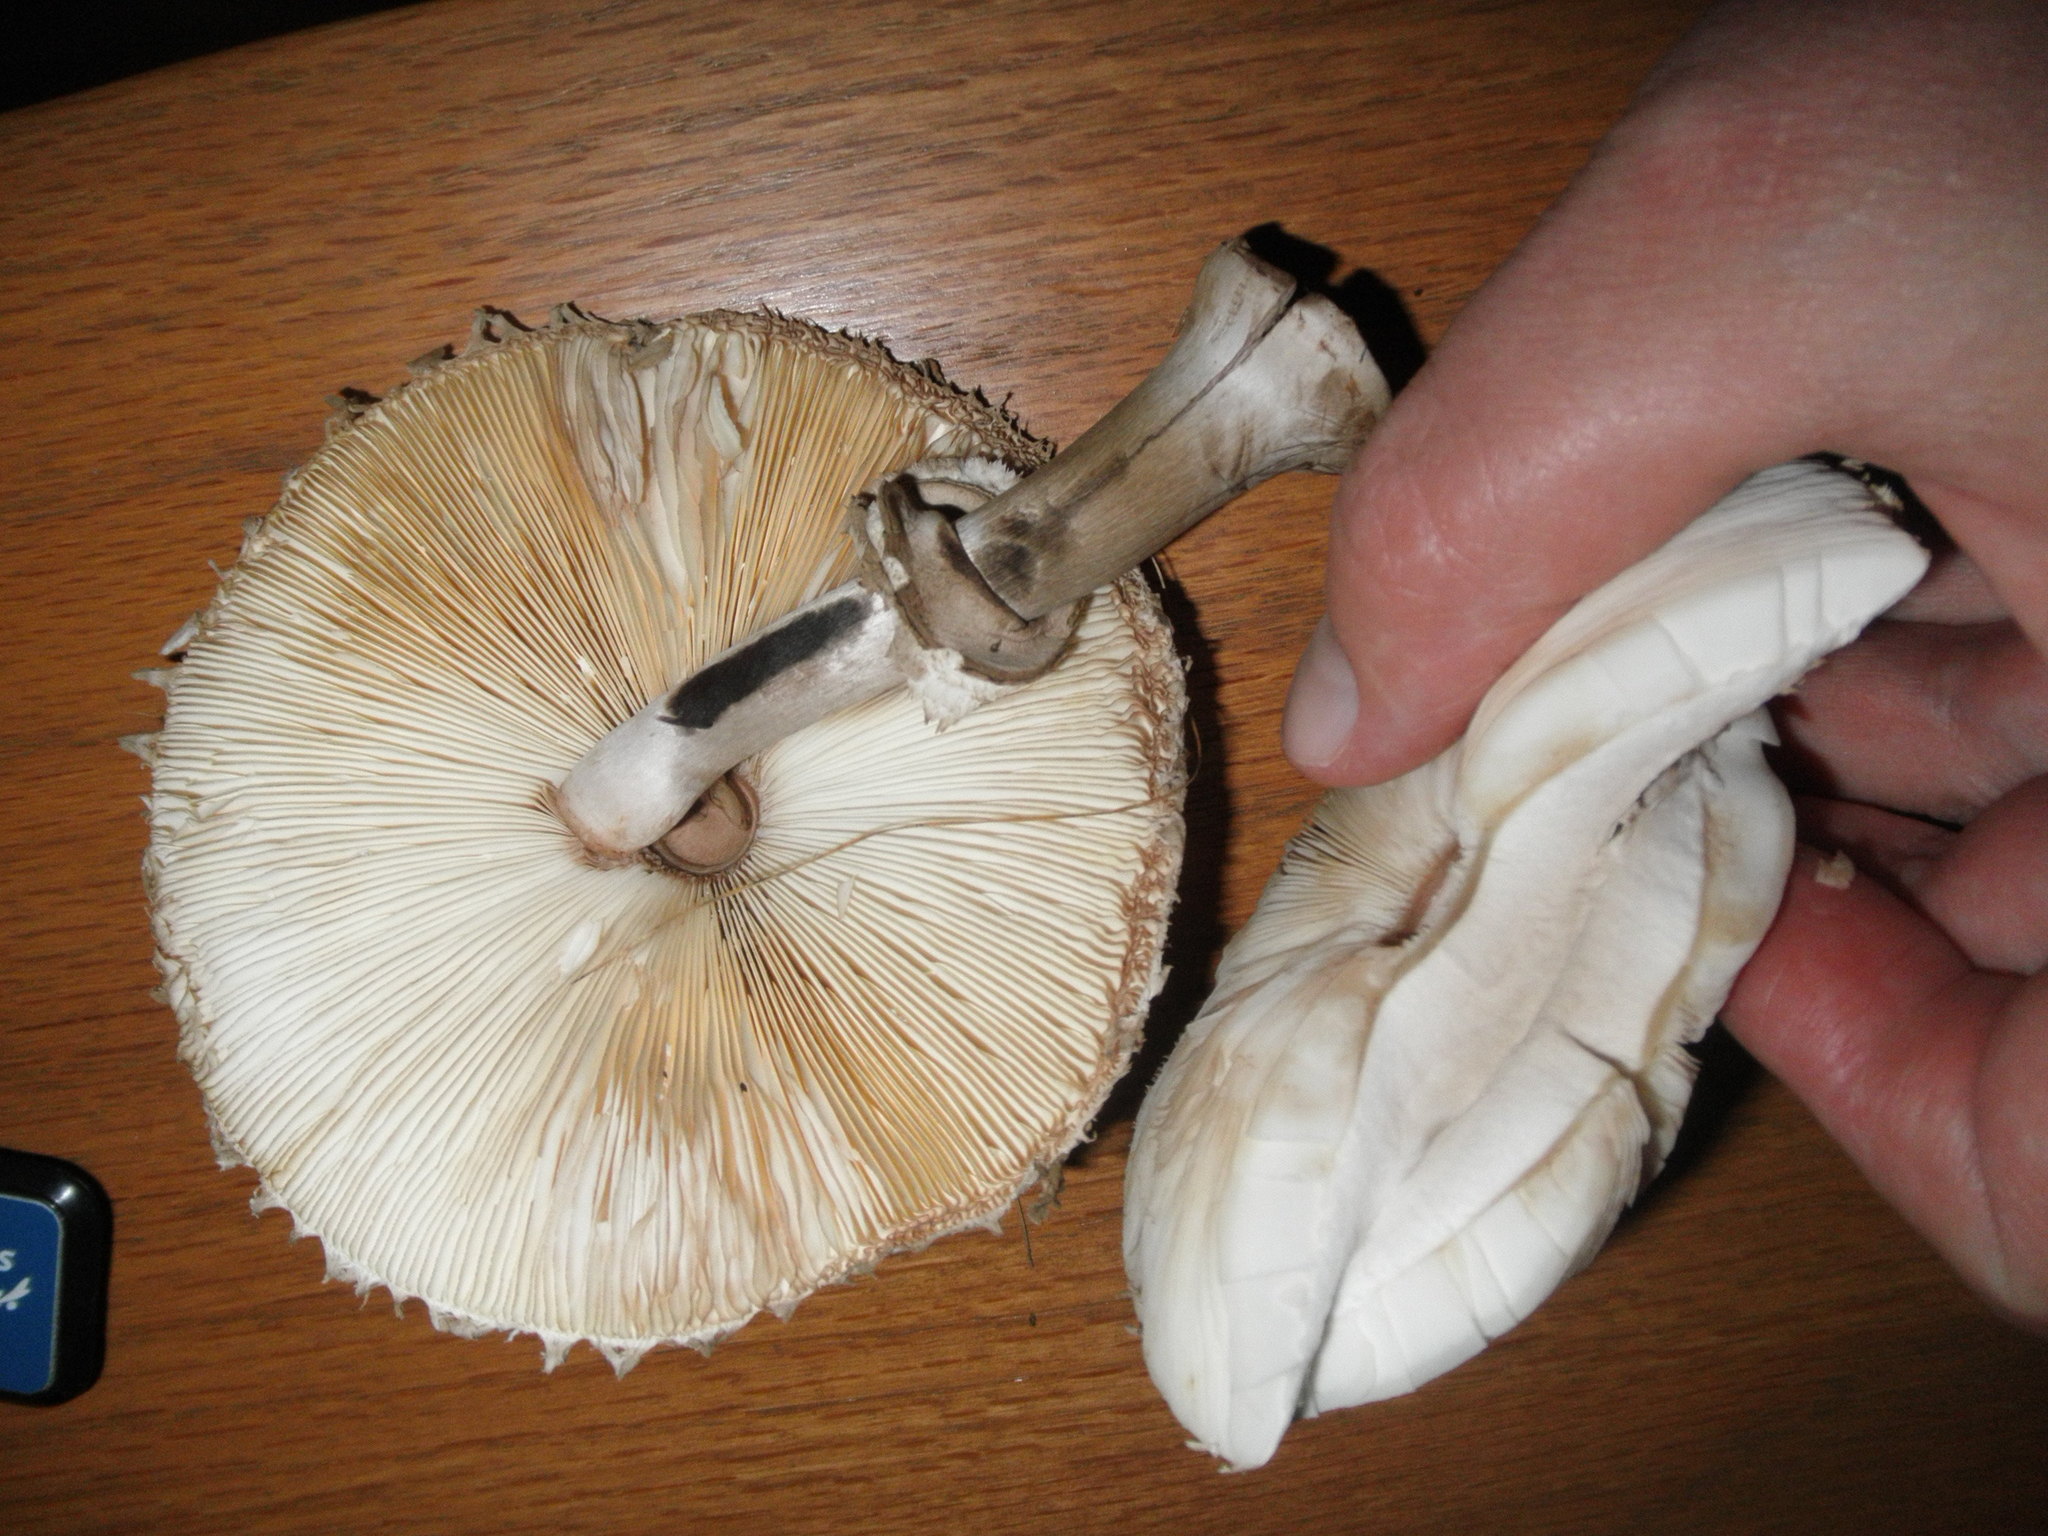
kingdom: Fungi
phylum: Basidiomycota
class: Agaricomycetes
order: Agaricales
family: Agaricaceae
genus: Chlorophyllum
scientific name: Chlorophyllum rhacodes
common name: Shaggy parasol
